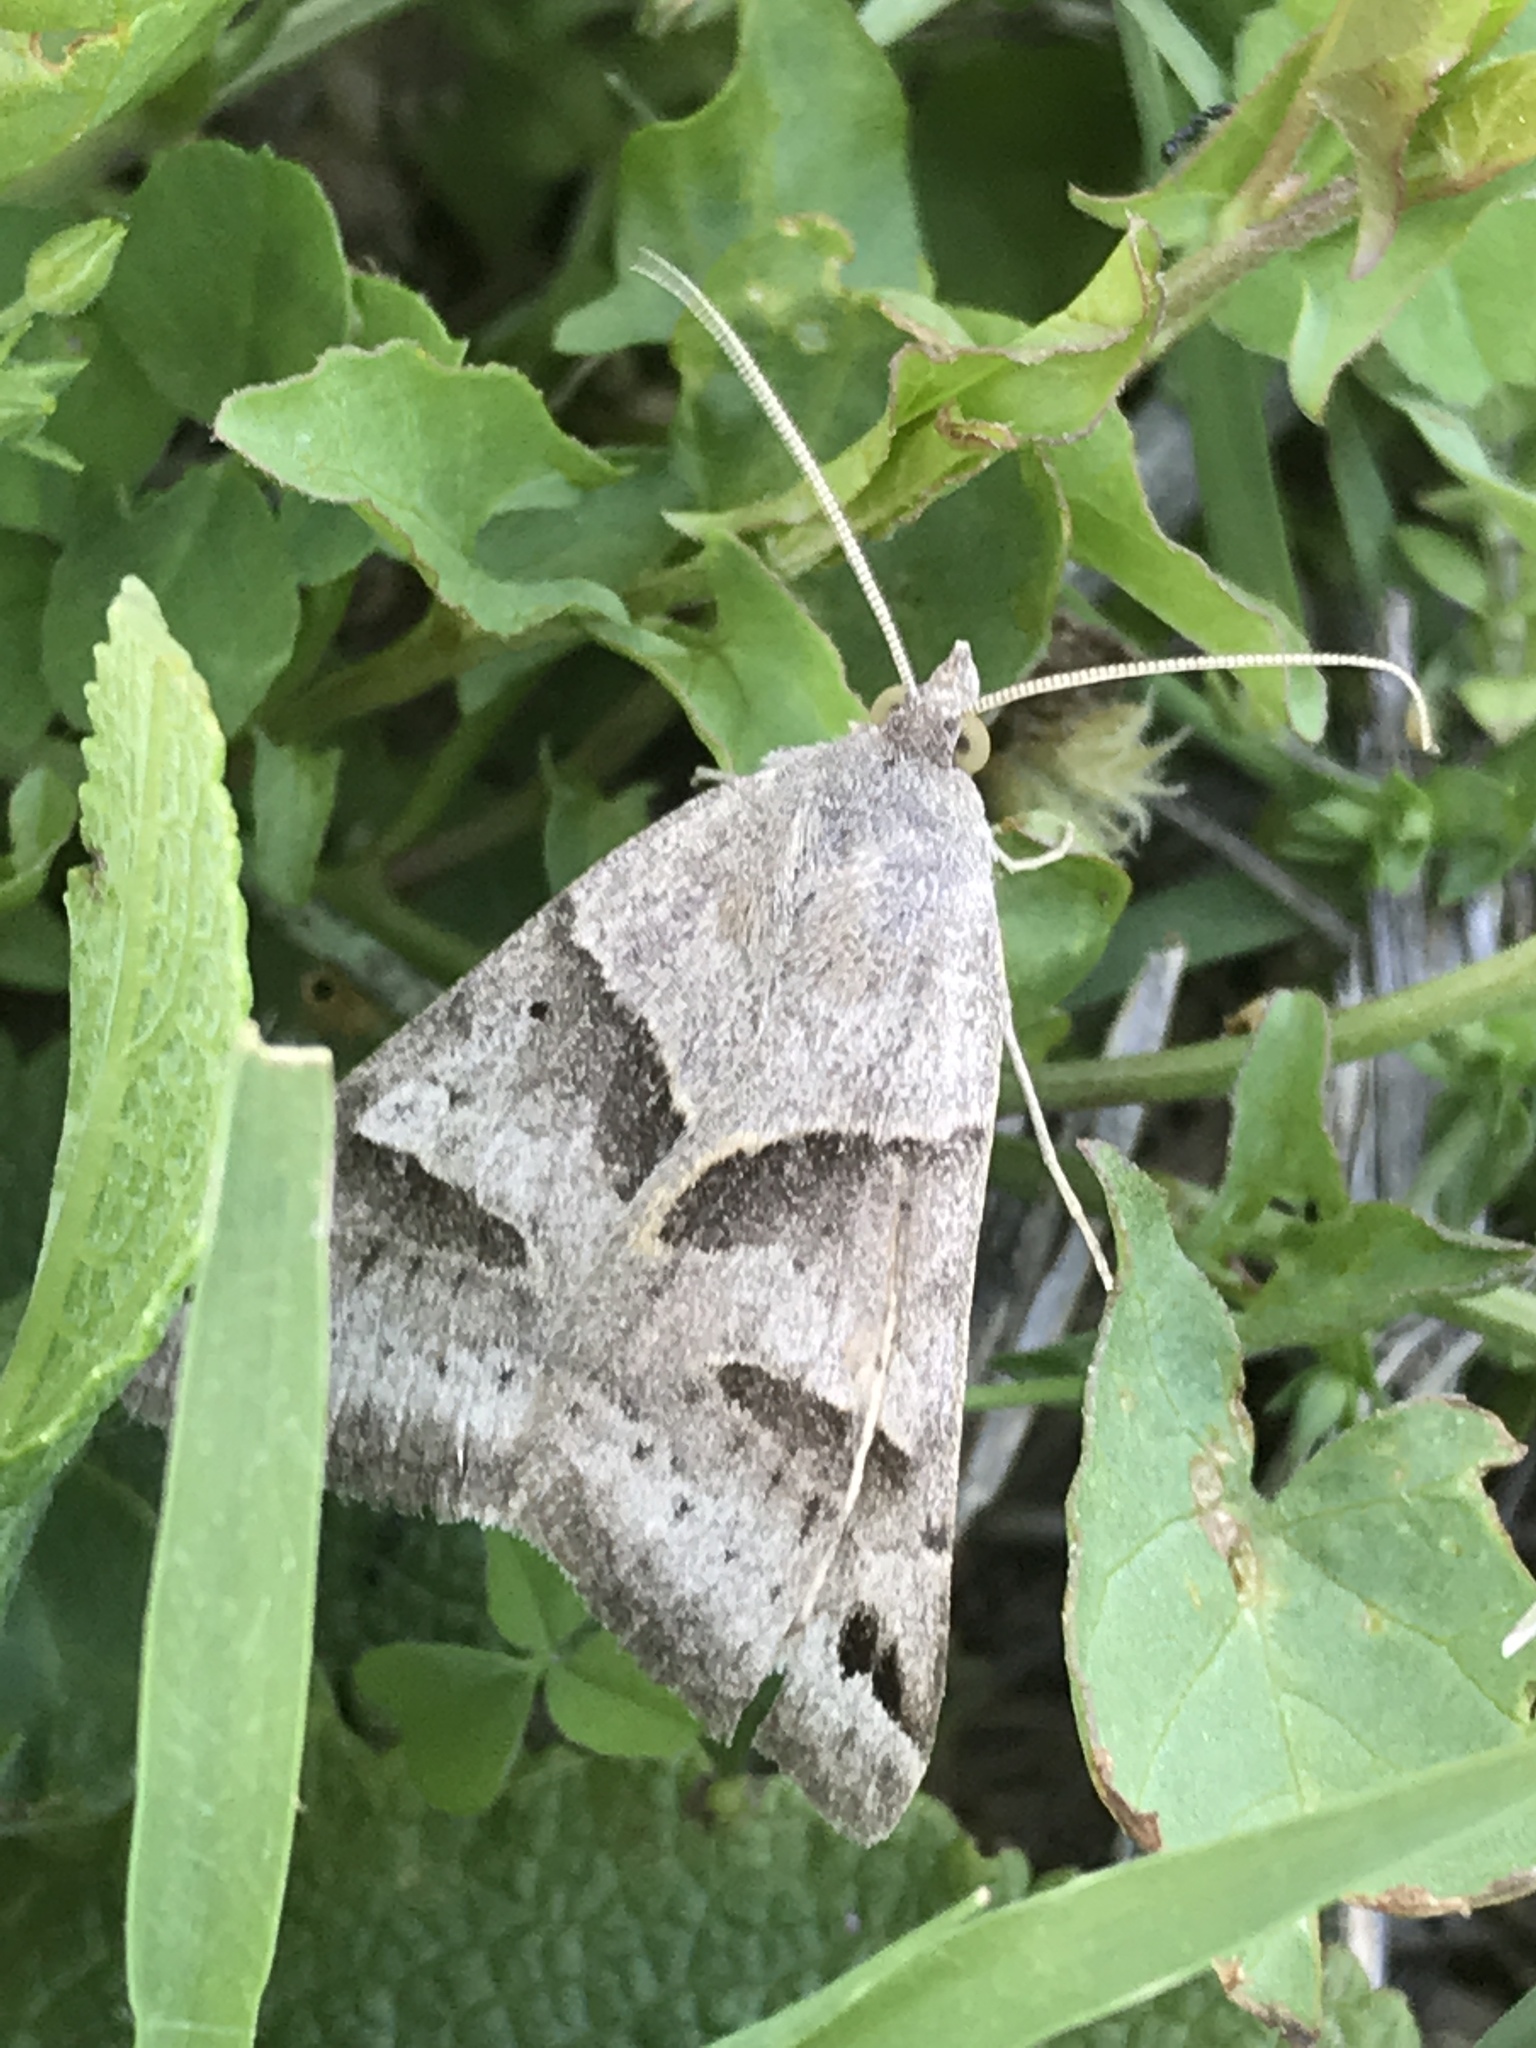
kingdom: Animalia
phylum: Arthropoda
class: Insecta
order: Lepidoptera
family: Erebidae
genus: Caenurgina
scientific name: Caenurgina erechtea
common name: Forage looper moth
